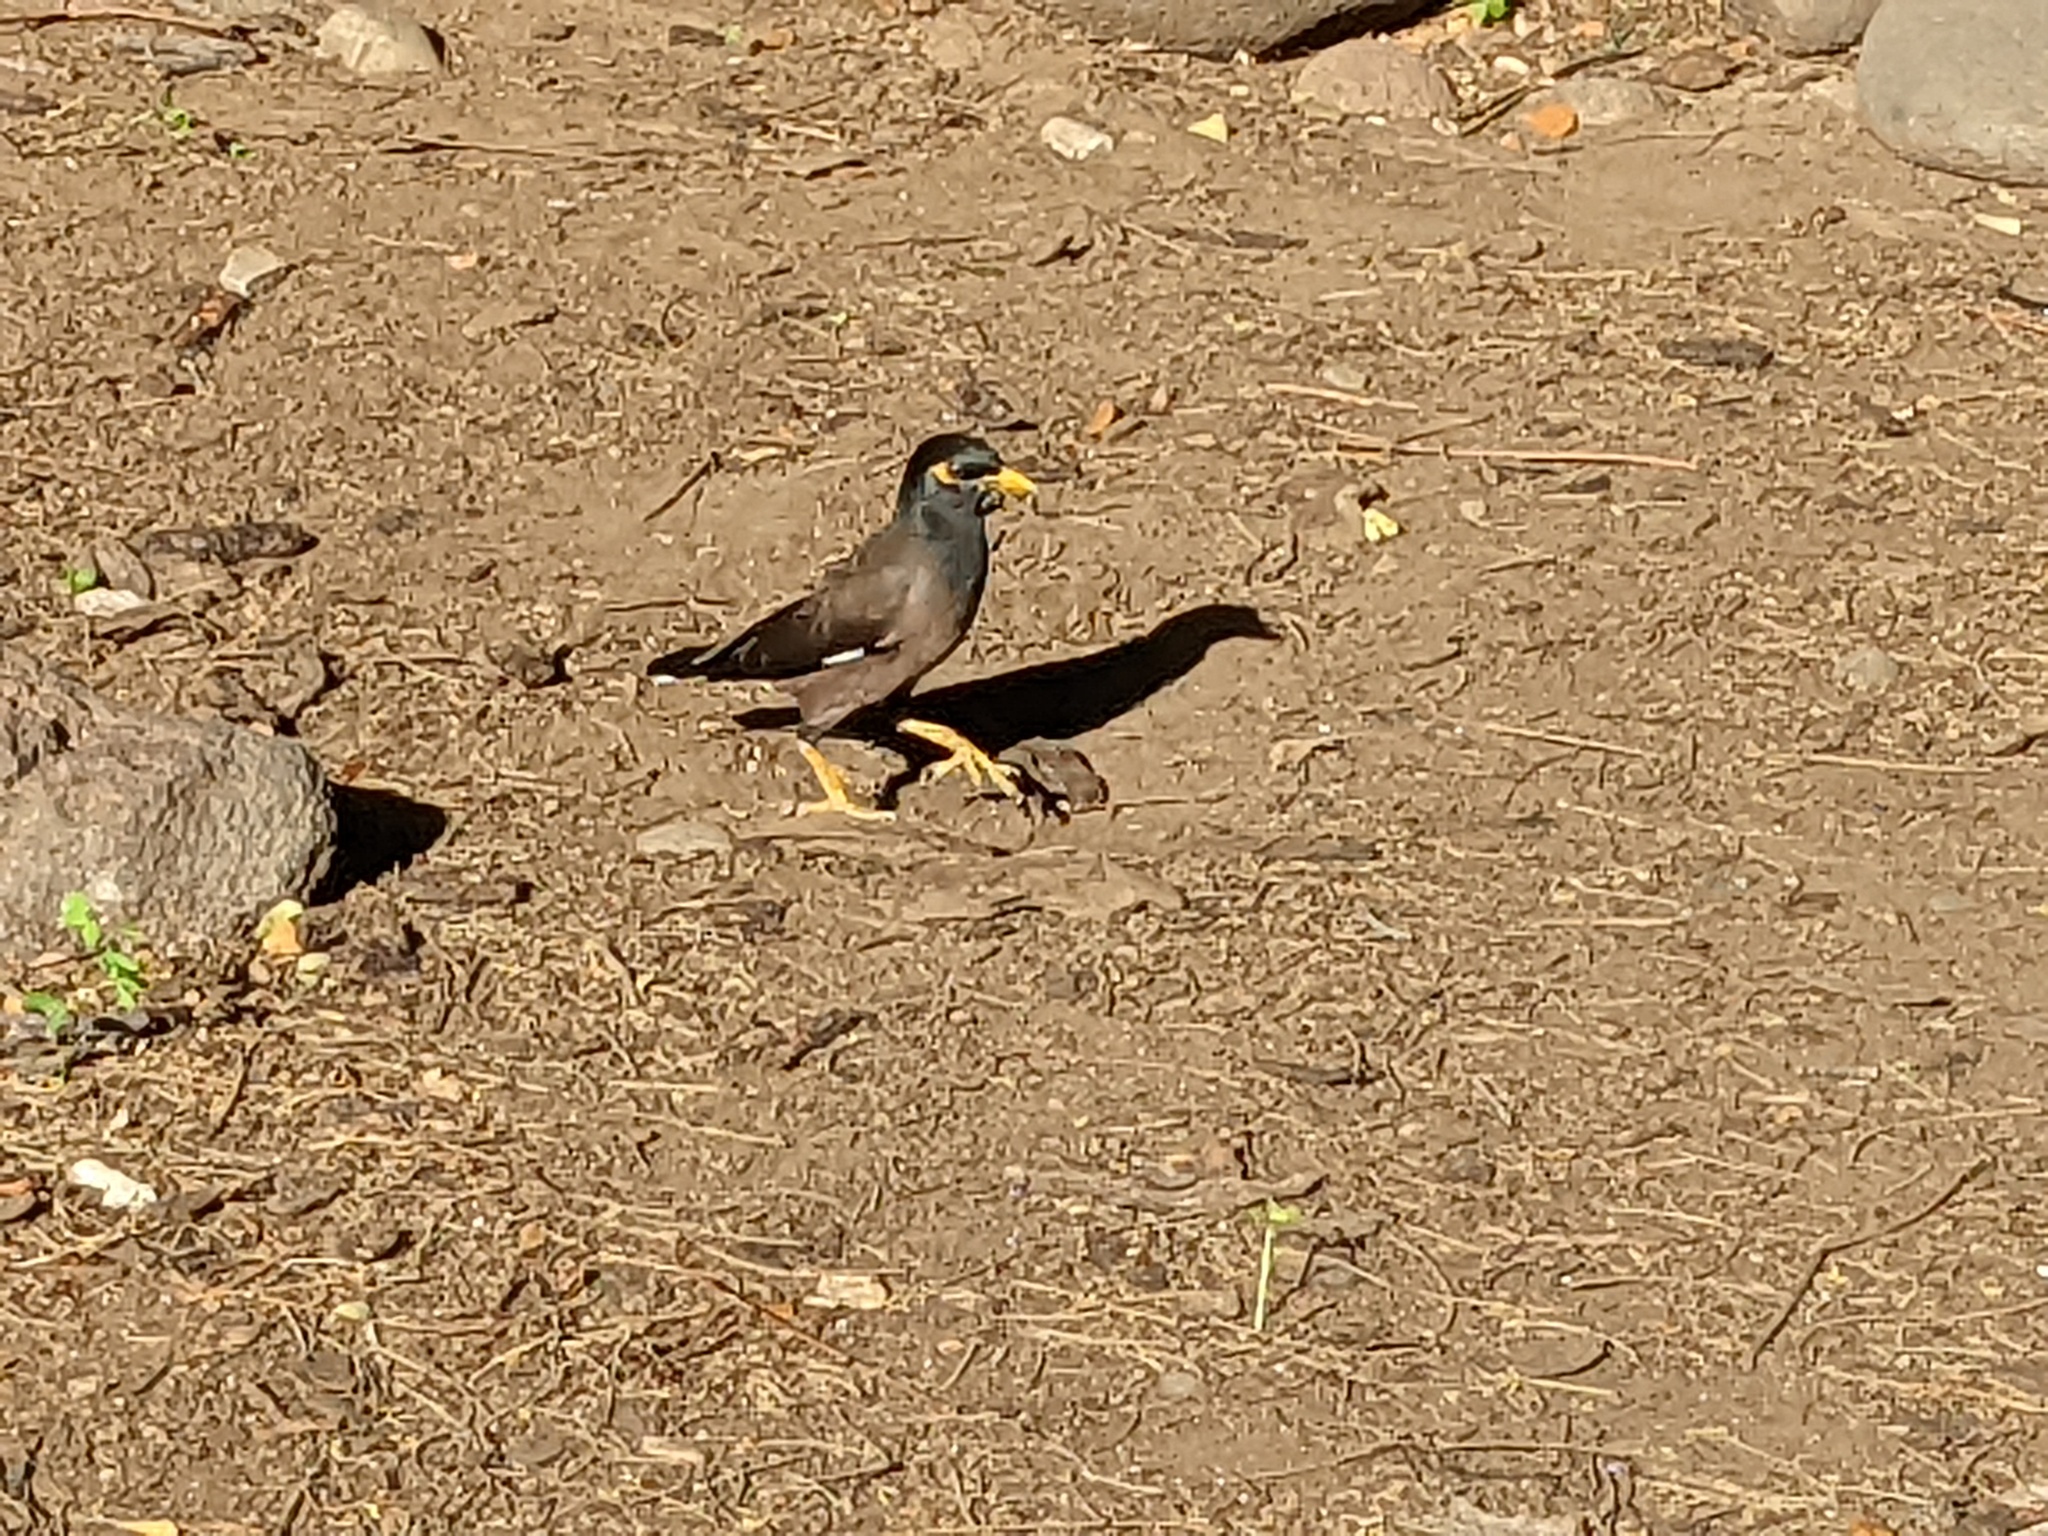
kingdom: Animalia
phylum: Chordata
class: Aves
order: Passeriformes
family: Sturnidae
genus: Acridotheres
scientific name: Acridotheres tristis
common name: Common myna
